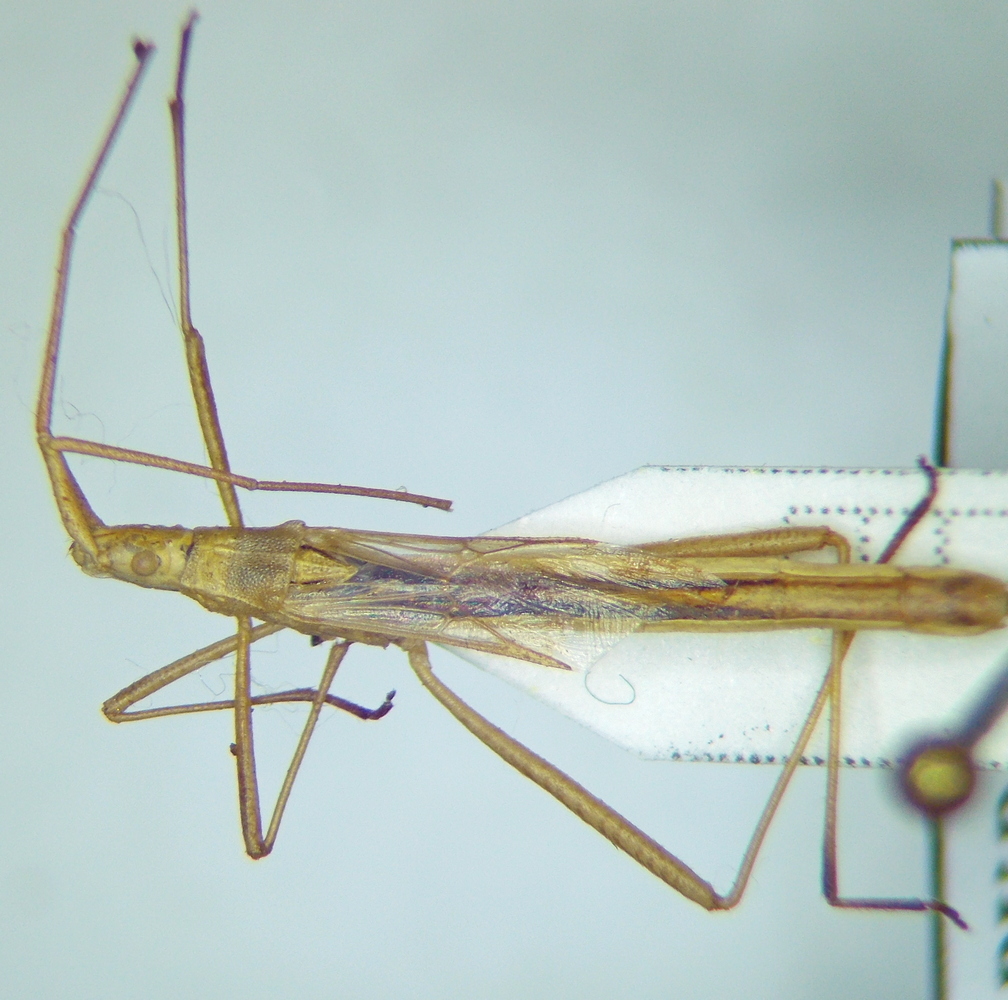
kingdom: Animalia
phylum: Arthropoda
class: Insecta
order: Hemiptera
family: Rhopalidae
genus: Chorosoma
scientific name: Chorosoma schillingii
